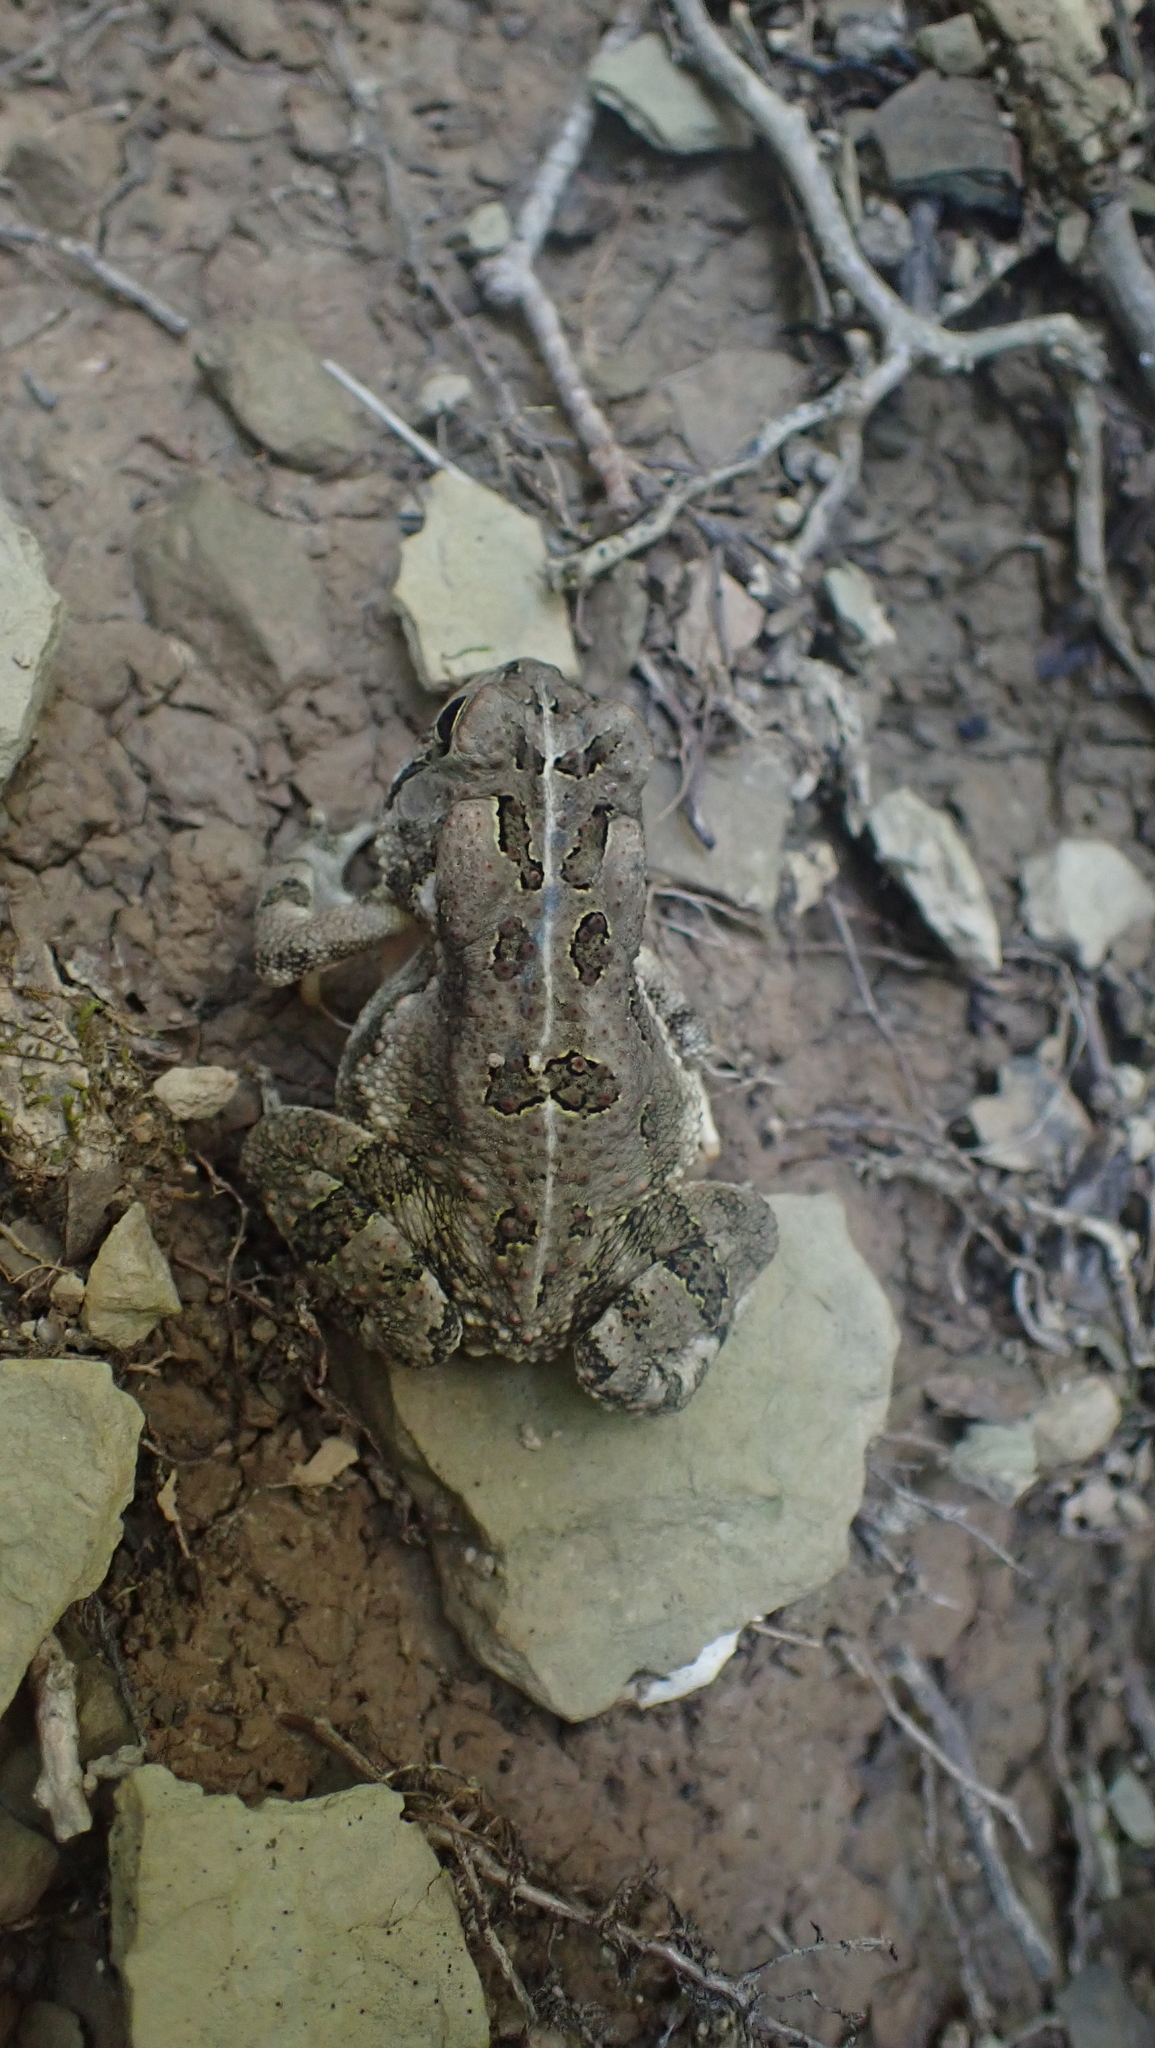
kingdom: Animalia
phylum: Chordata
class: Amphibia
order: Anura
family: Bufonidae
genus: Anaxyrus
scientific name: Anaxyrus fowleri
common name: Fowler's toad
